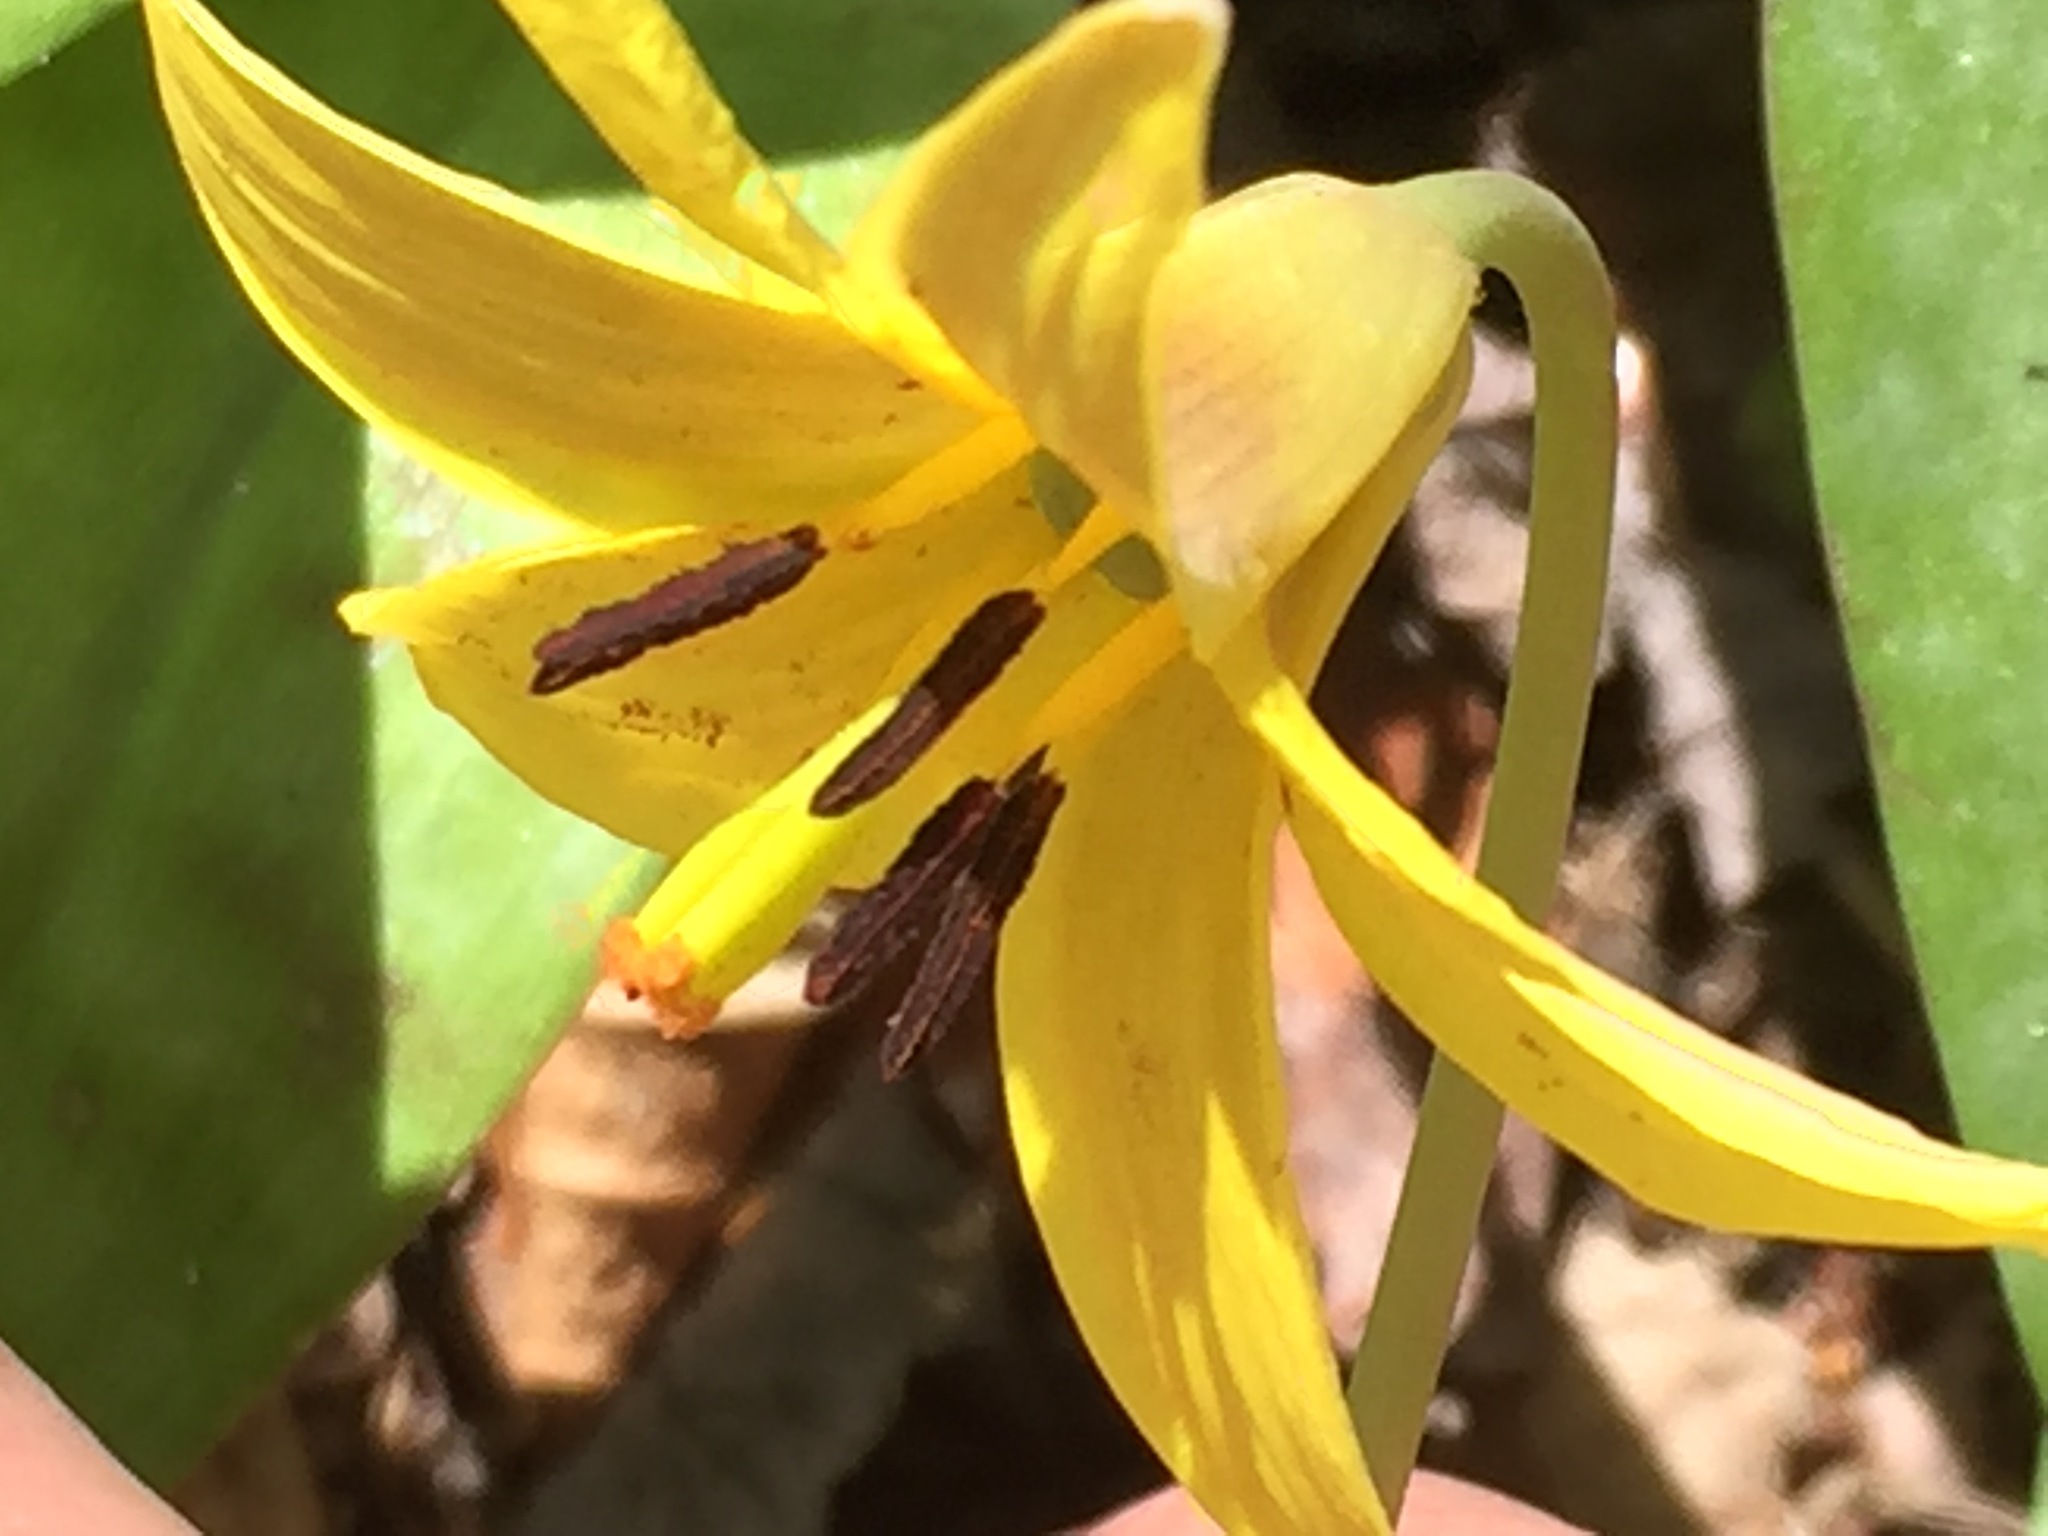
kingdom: Plantae
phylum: Tracheophyta
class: Liliopsida
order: Liliales
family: Liliaceae
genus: Erythronium
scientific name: Erythronium americanum
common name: Yellow adder's-tongue
